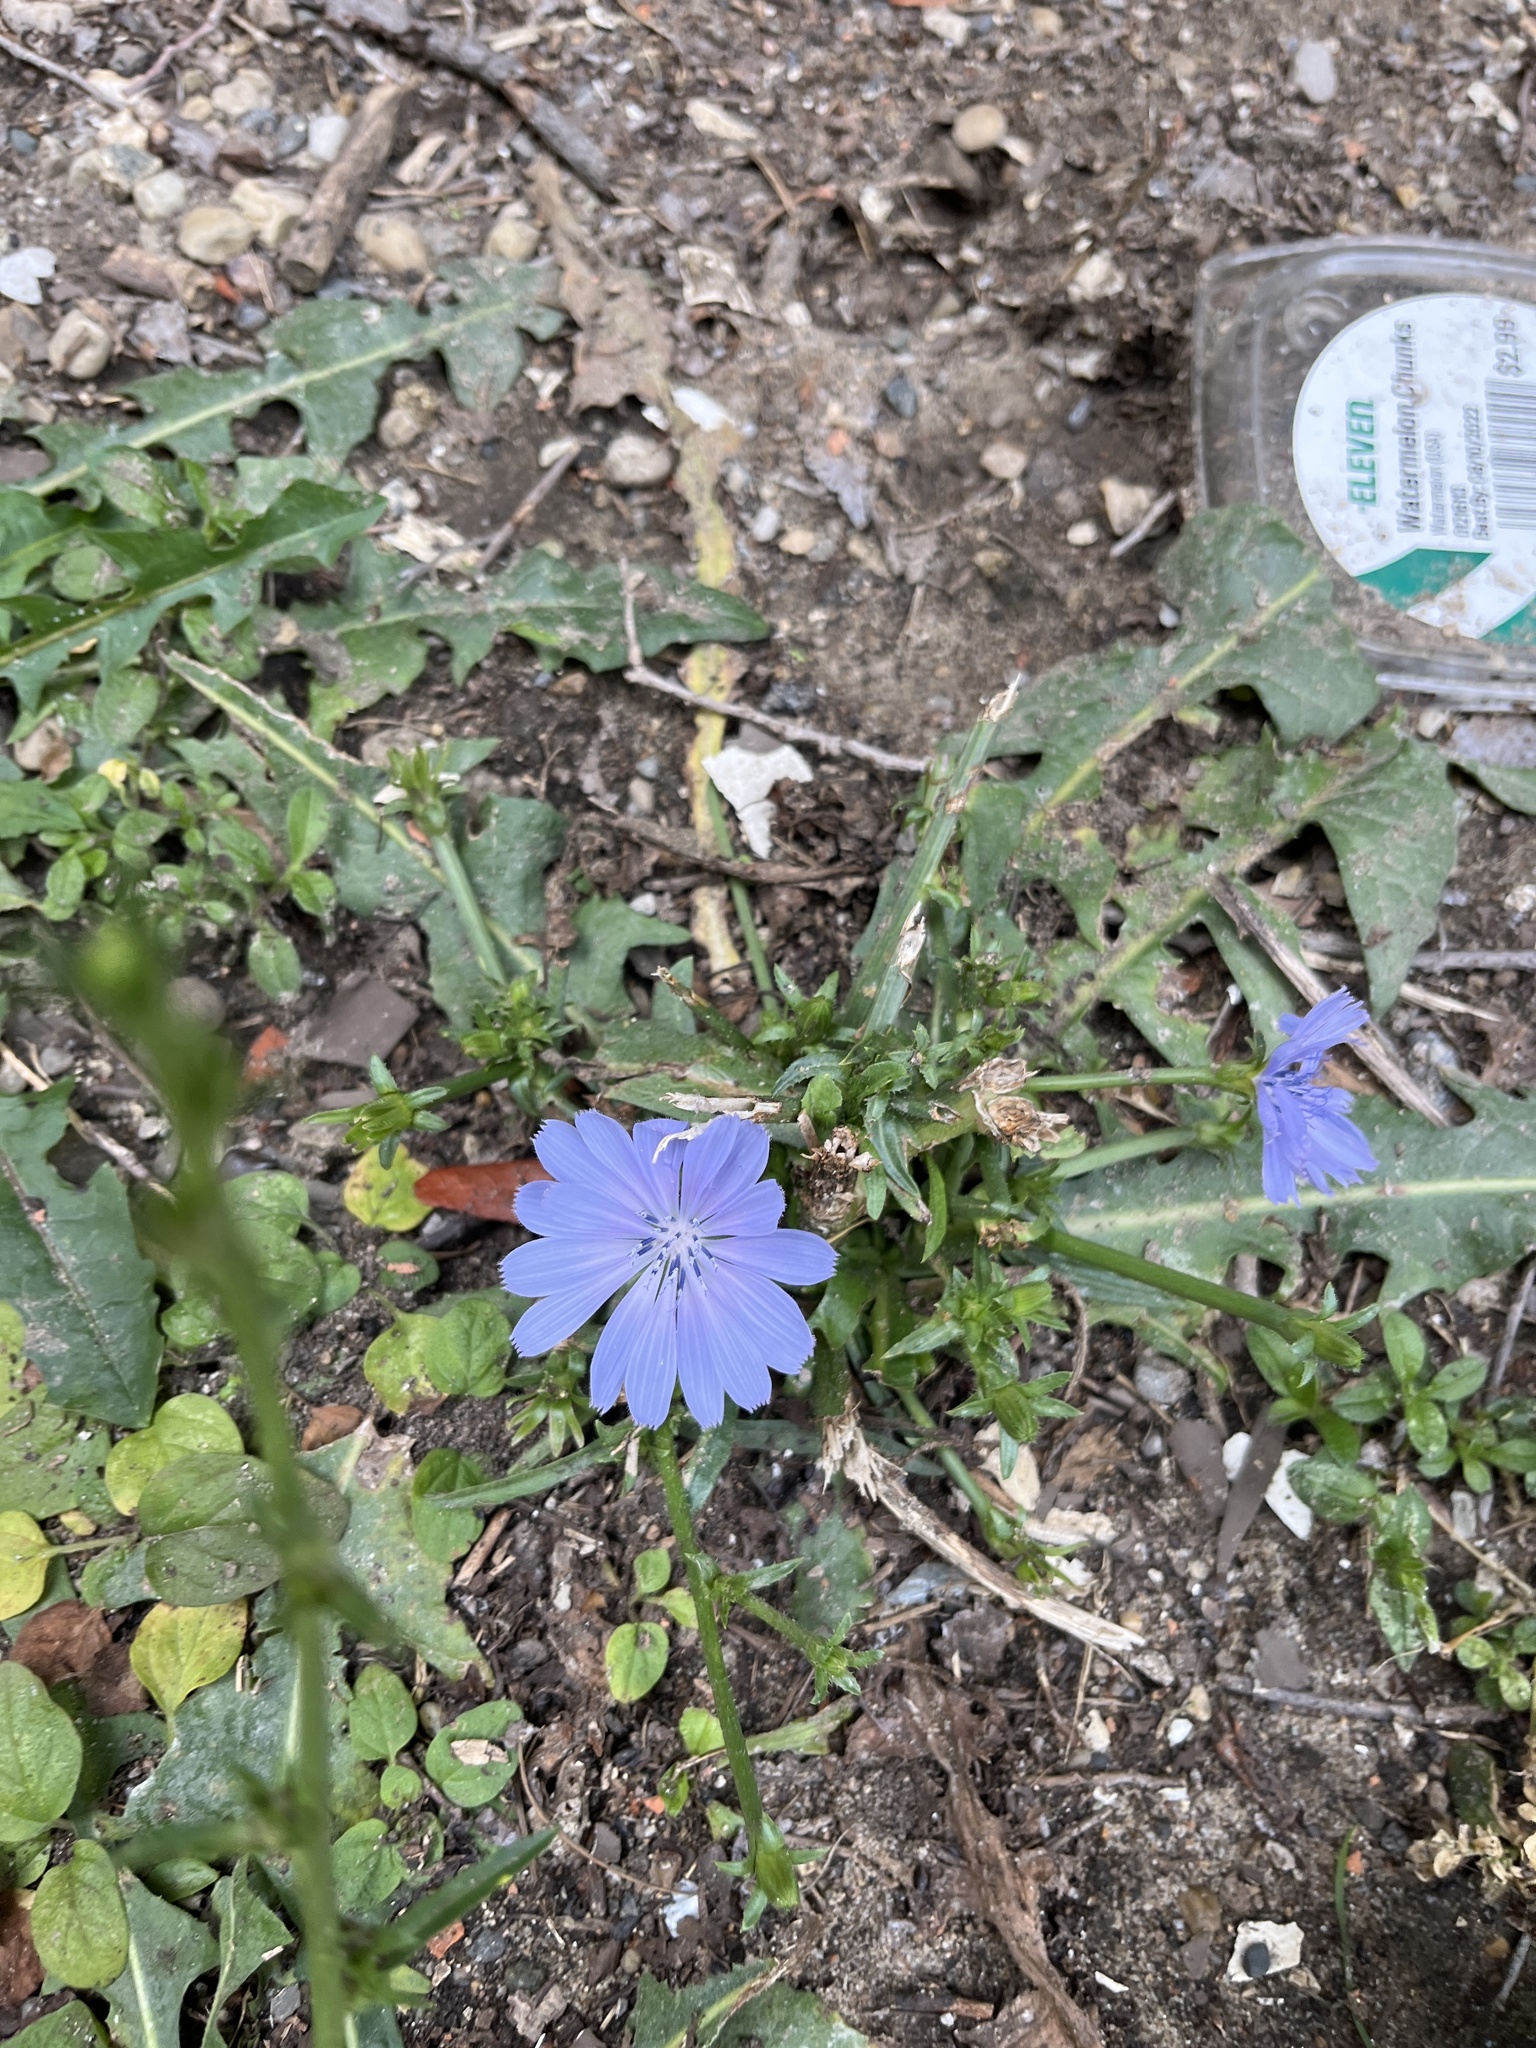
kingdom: Plantae
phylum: Tracheophyta
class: Magnoliopsida
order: Asterales
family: Asteraceae
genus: Cichorium
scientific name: Cichorium intybus
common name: Chicory
